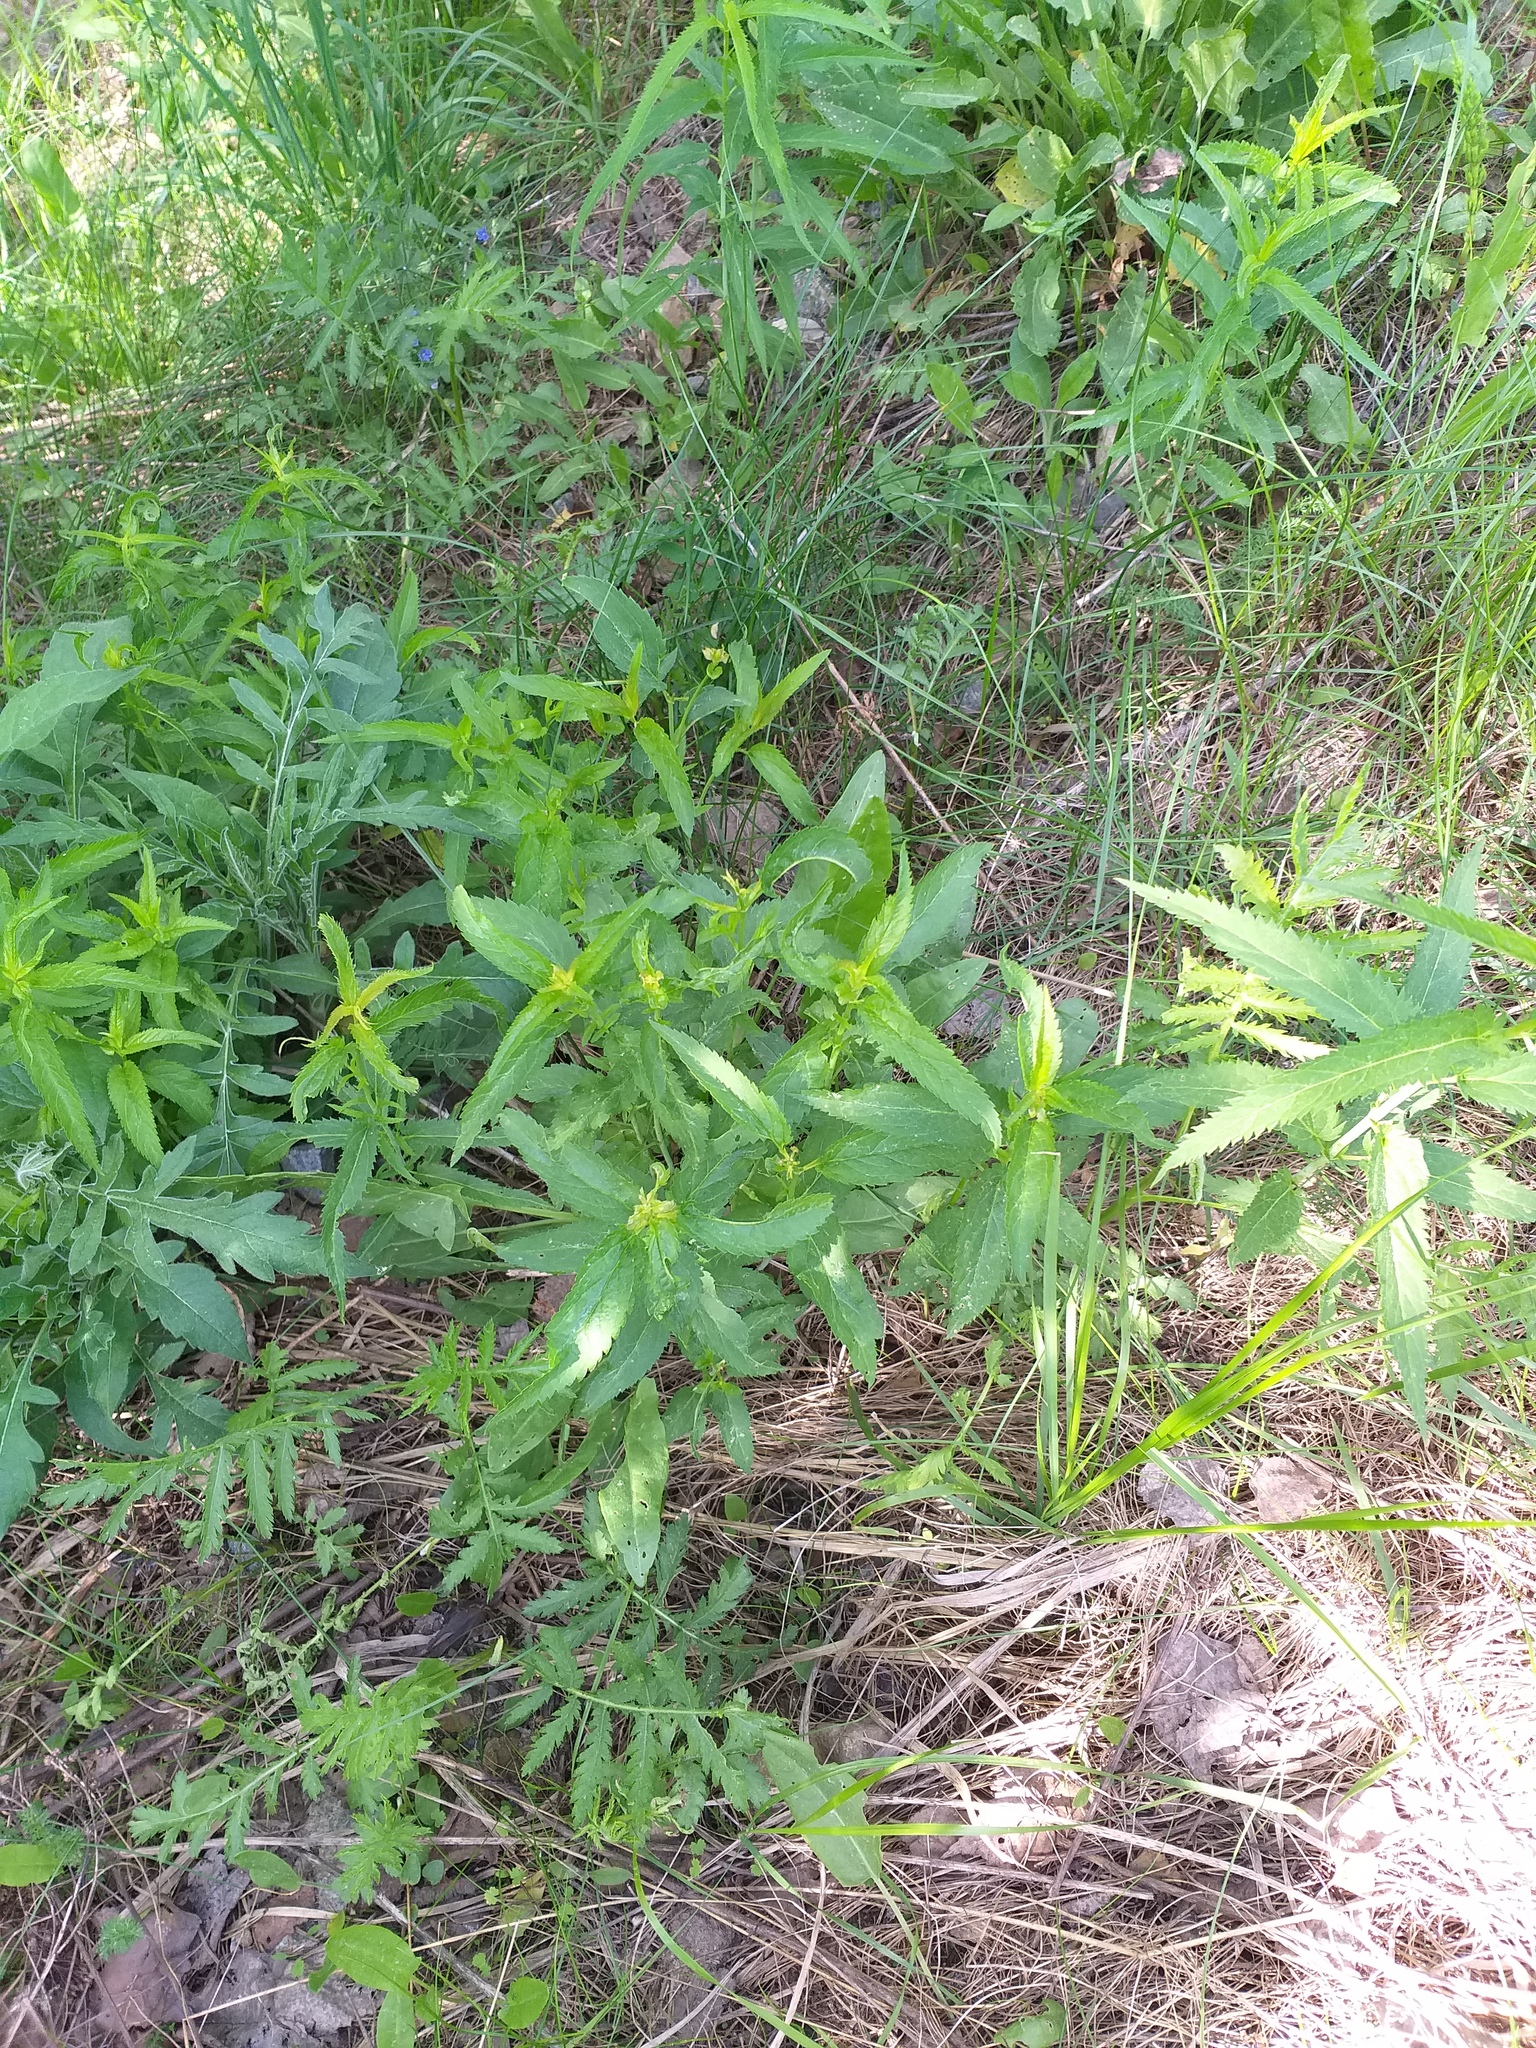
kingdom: Plantae
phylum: Tracheophyta
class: Magnoliopsida
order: Lamiales
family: Plantaginaceae
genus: Veronica
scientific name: Veronica longifolia
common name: Garden speedwell
